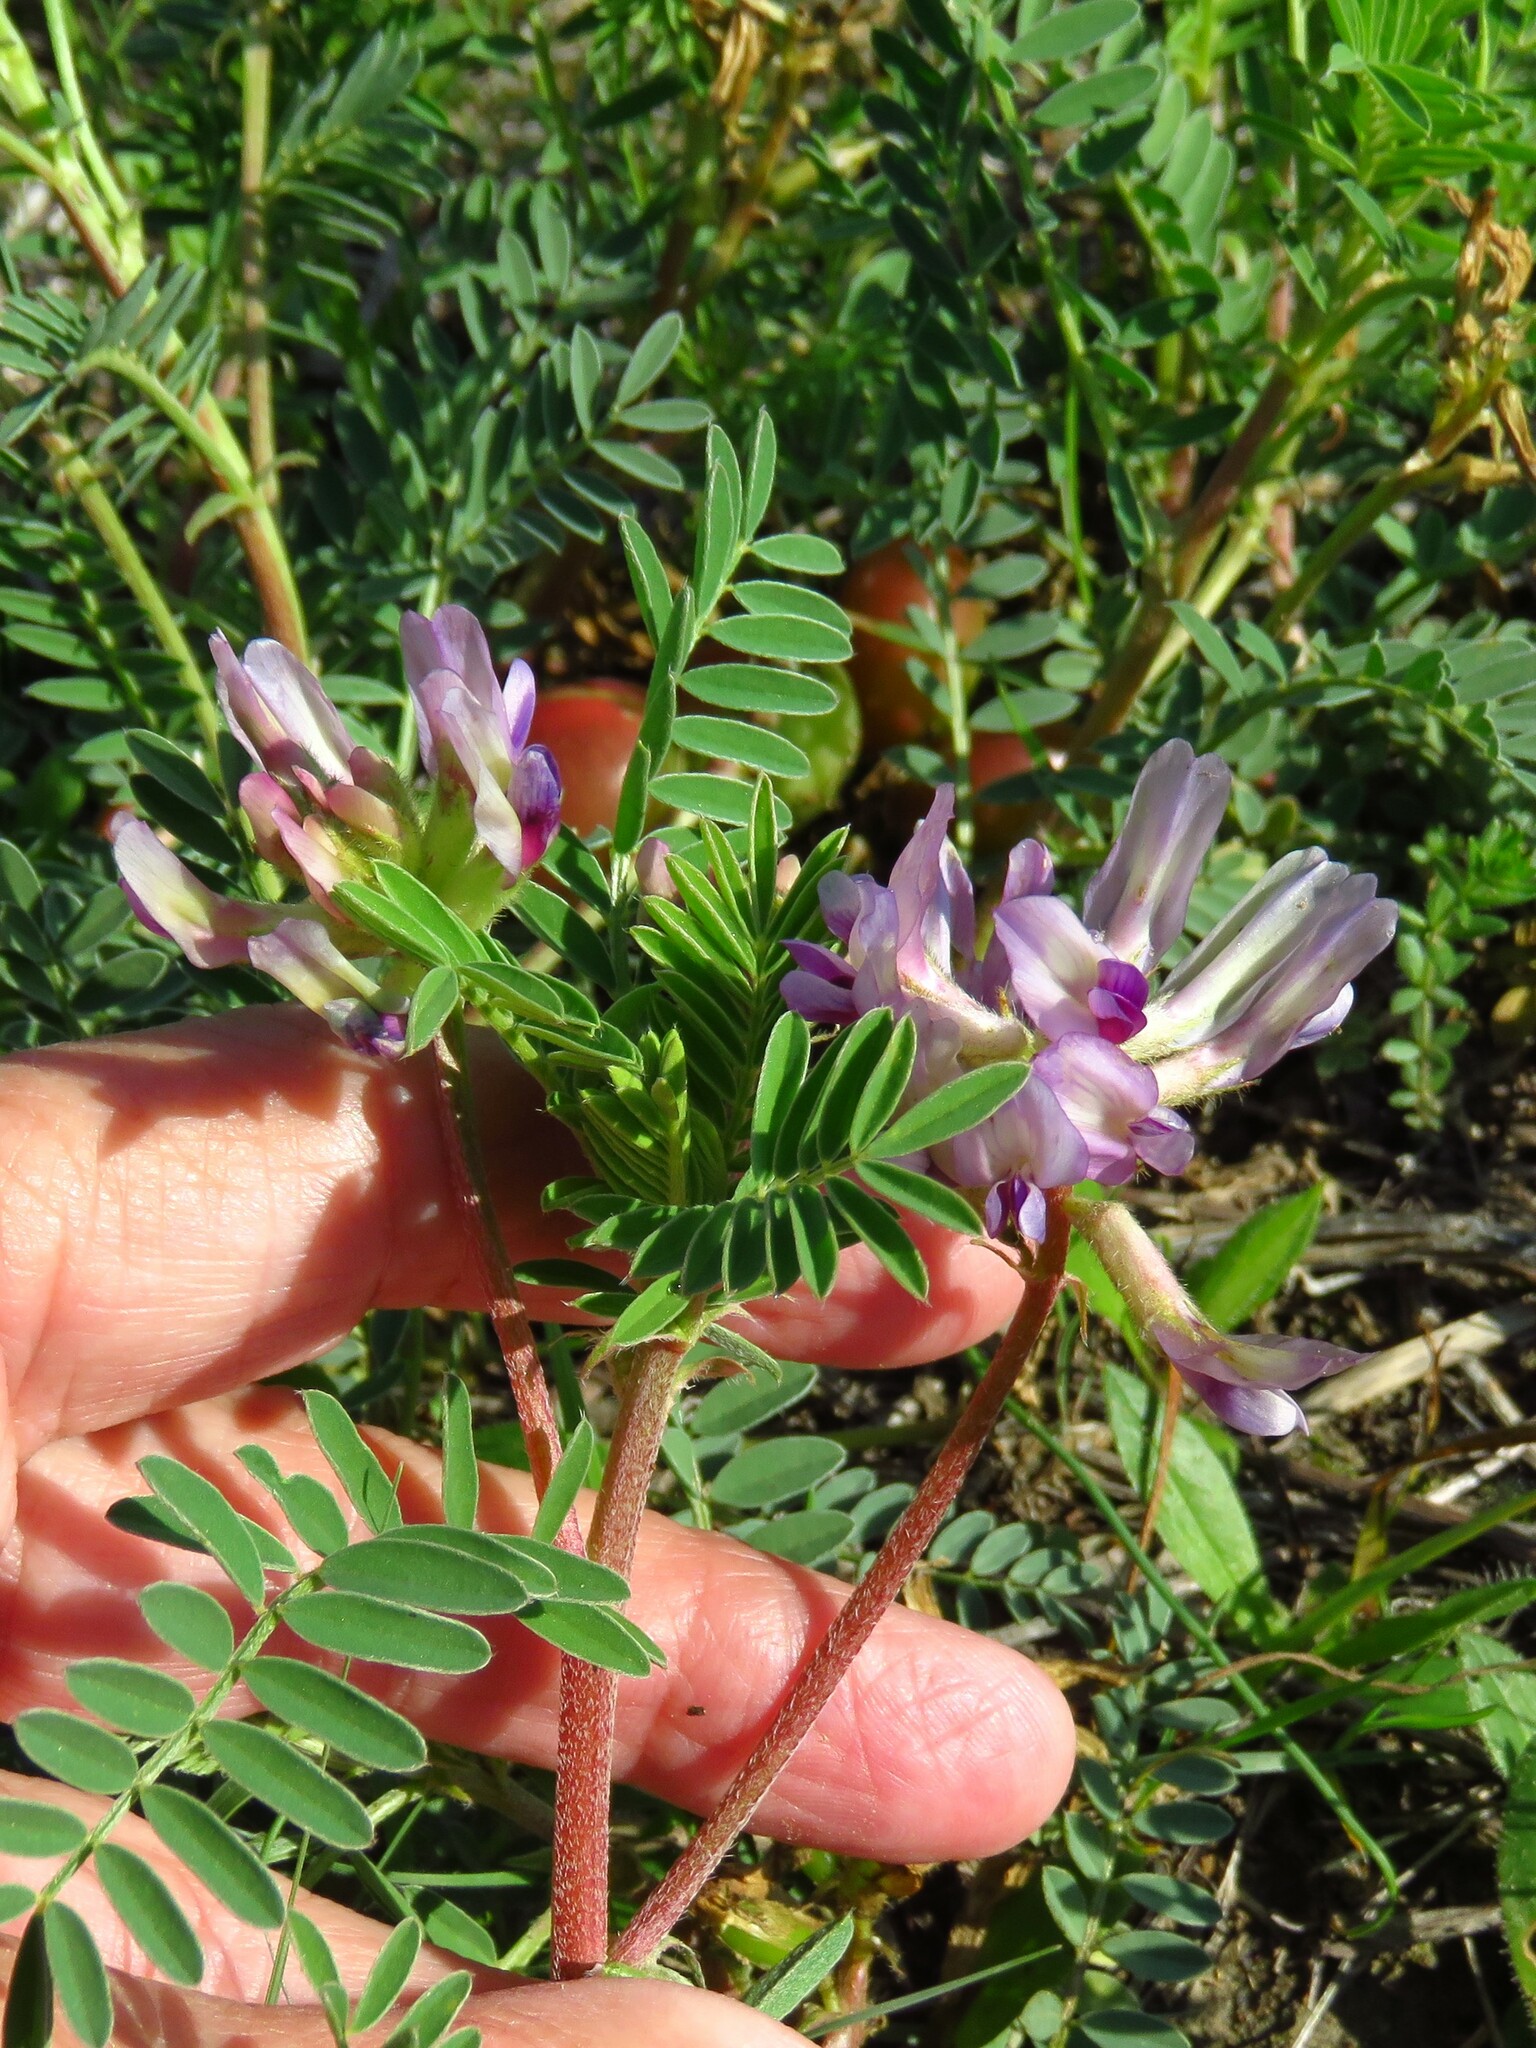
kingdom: Plantae
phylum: Tracheophyta
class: Magnoliopsida
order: Fabales
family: Fabaceae
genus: Astragalus
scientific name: Astragalus crassicarpus
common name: Ground-plum milk-vetch
